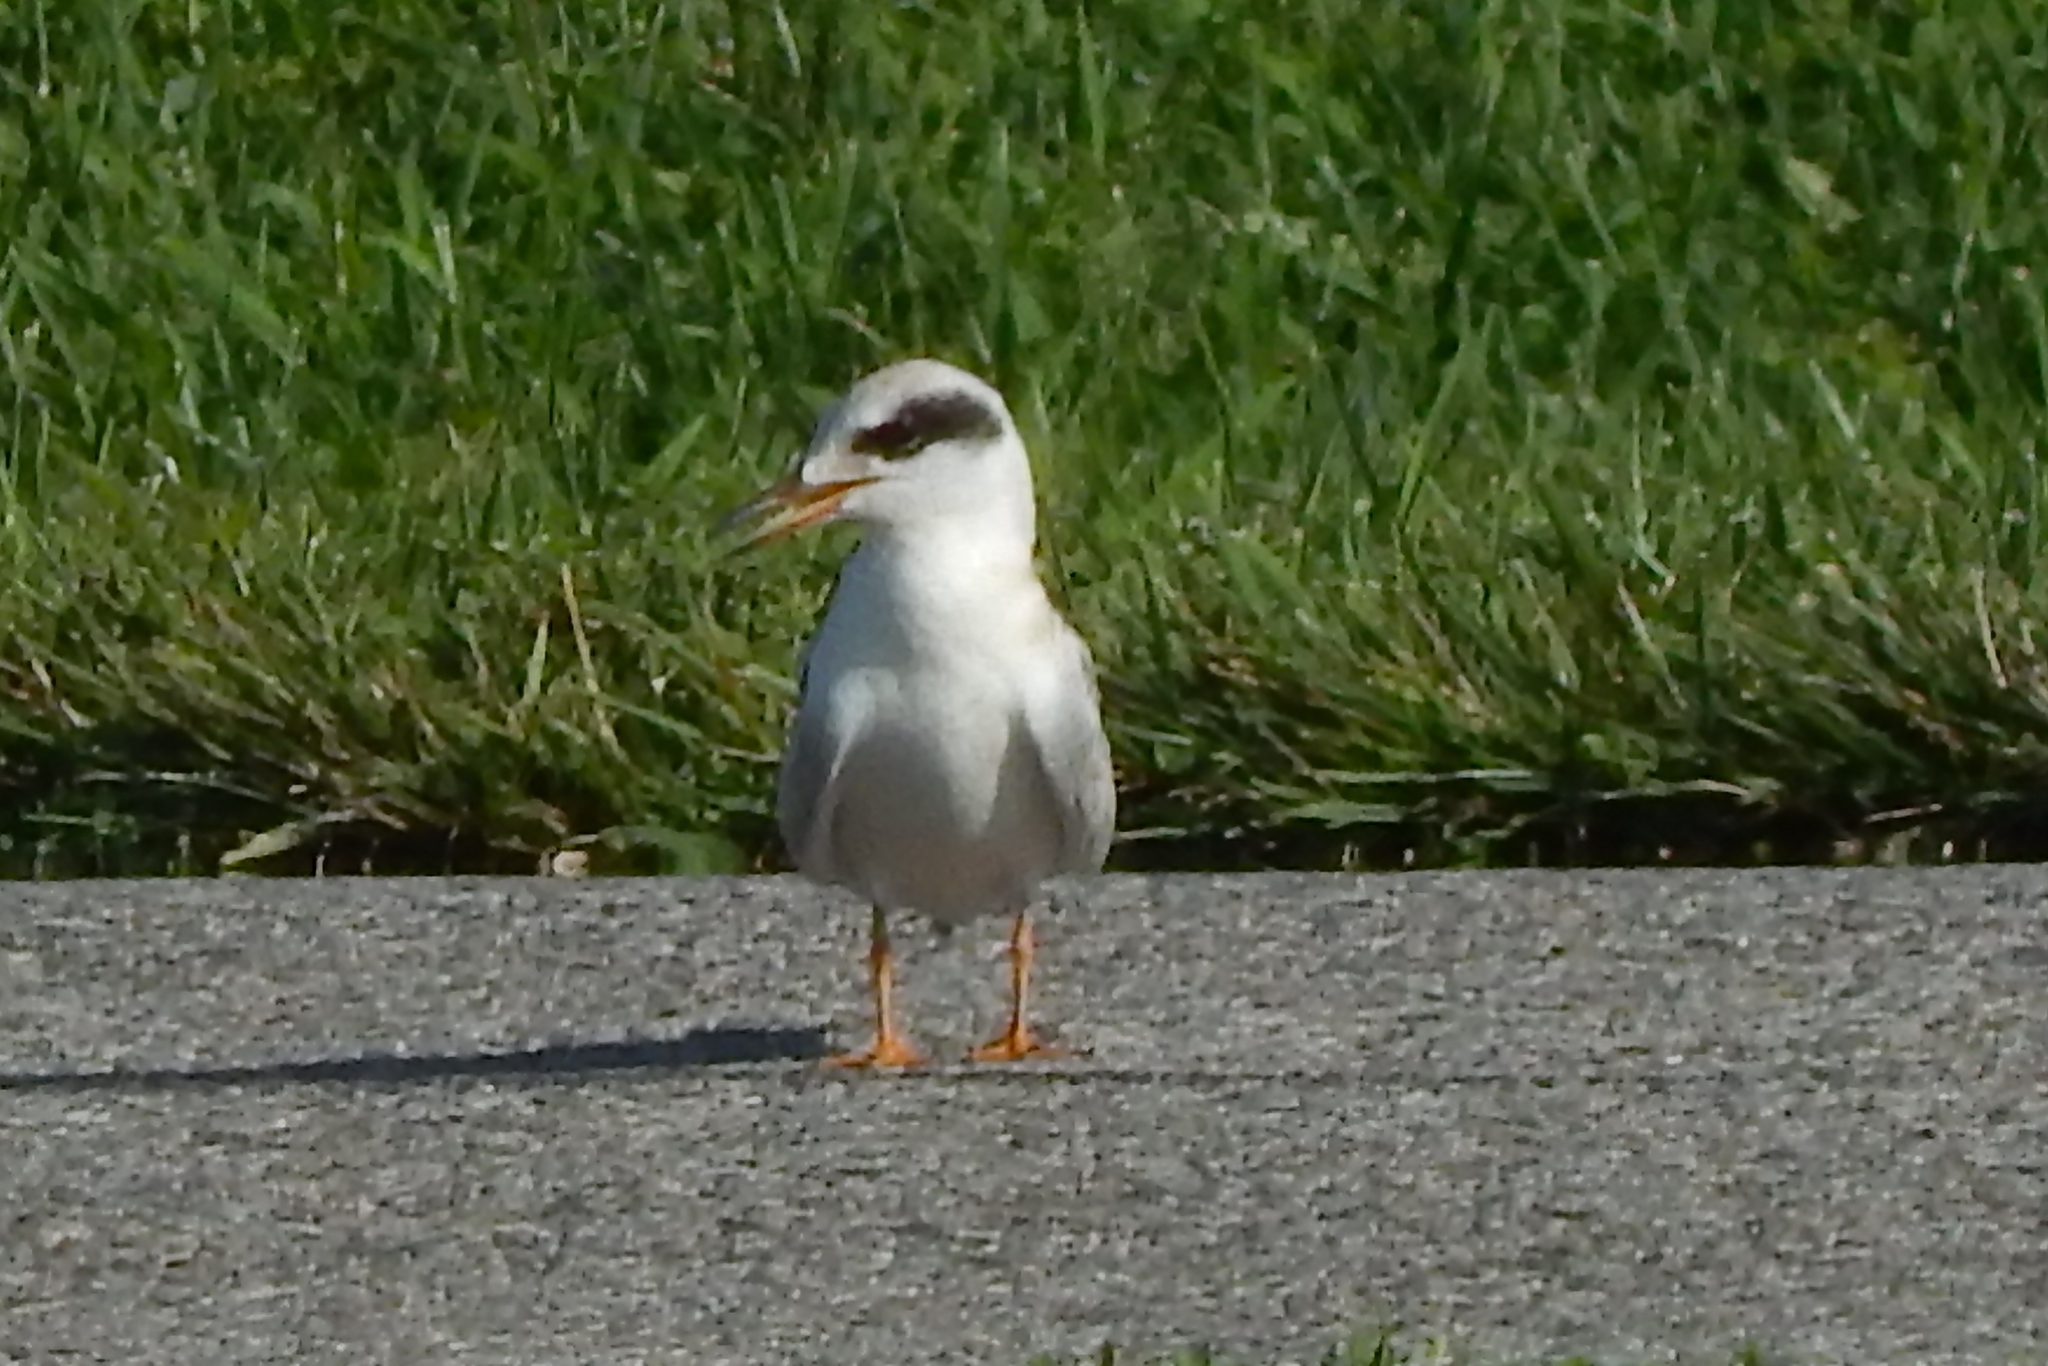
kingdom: Animalia
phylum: Chordata
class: Aves
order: Charadriiformes
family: Laridae
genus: Sterna
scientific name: Sterna forsteri
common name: Forster's tern
